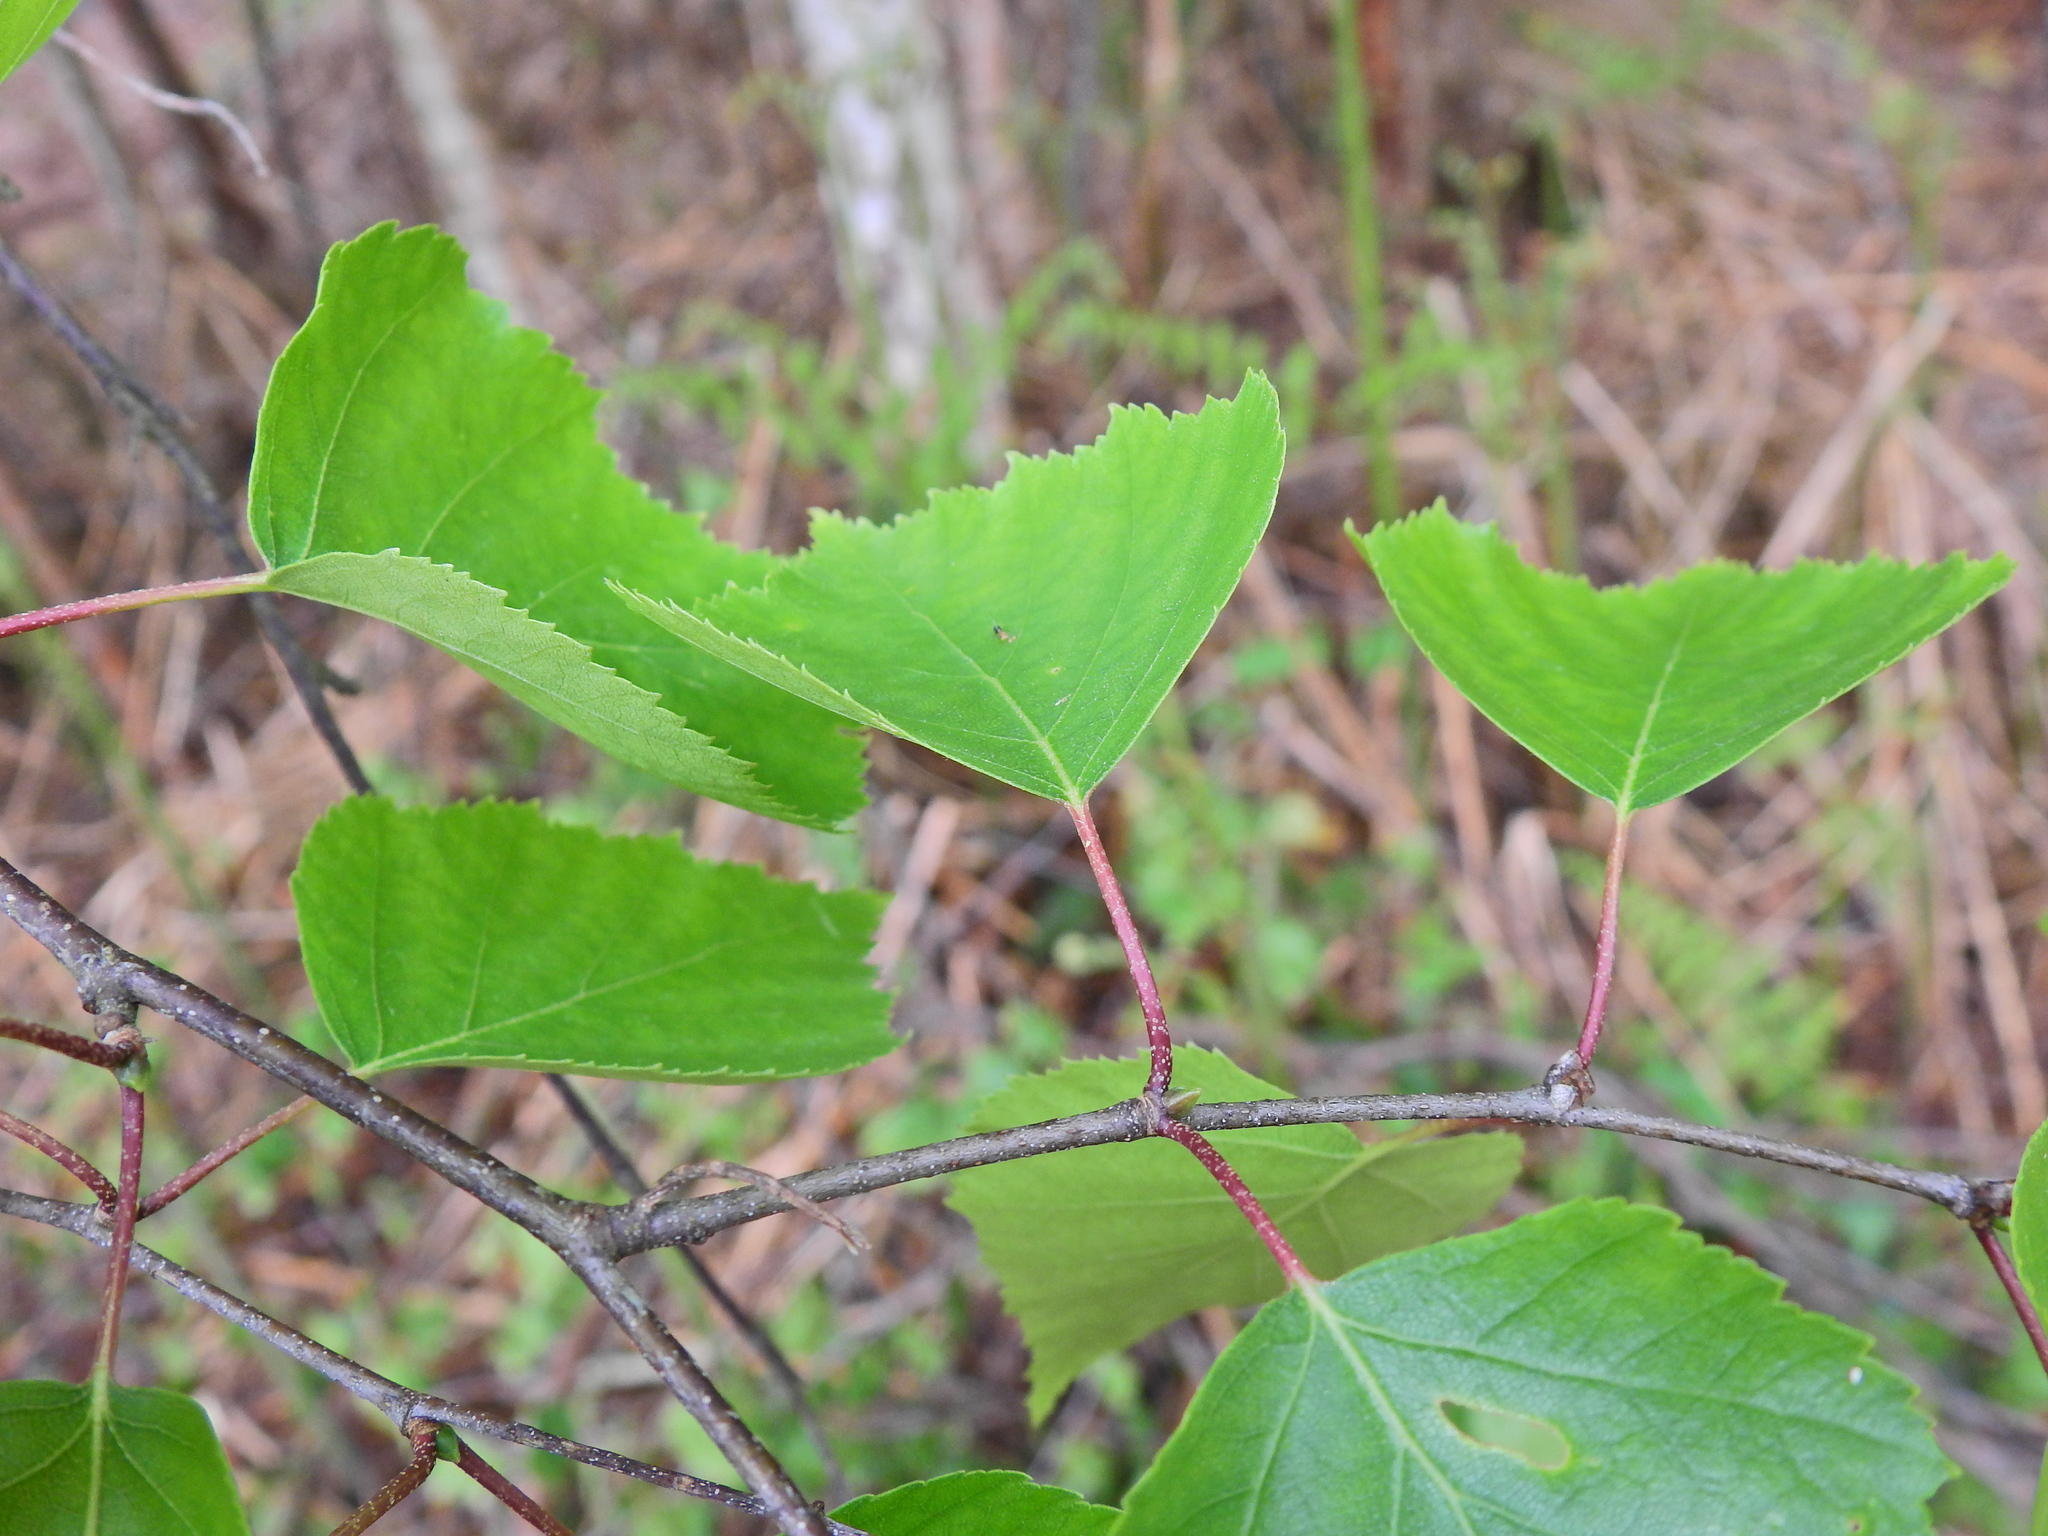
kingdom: Plantae
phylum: Tracheophyta
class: Magnoliopsida
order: Fagales
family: Betulaceae
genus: Betula
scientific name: Betula pendula
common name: Silver birch
